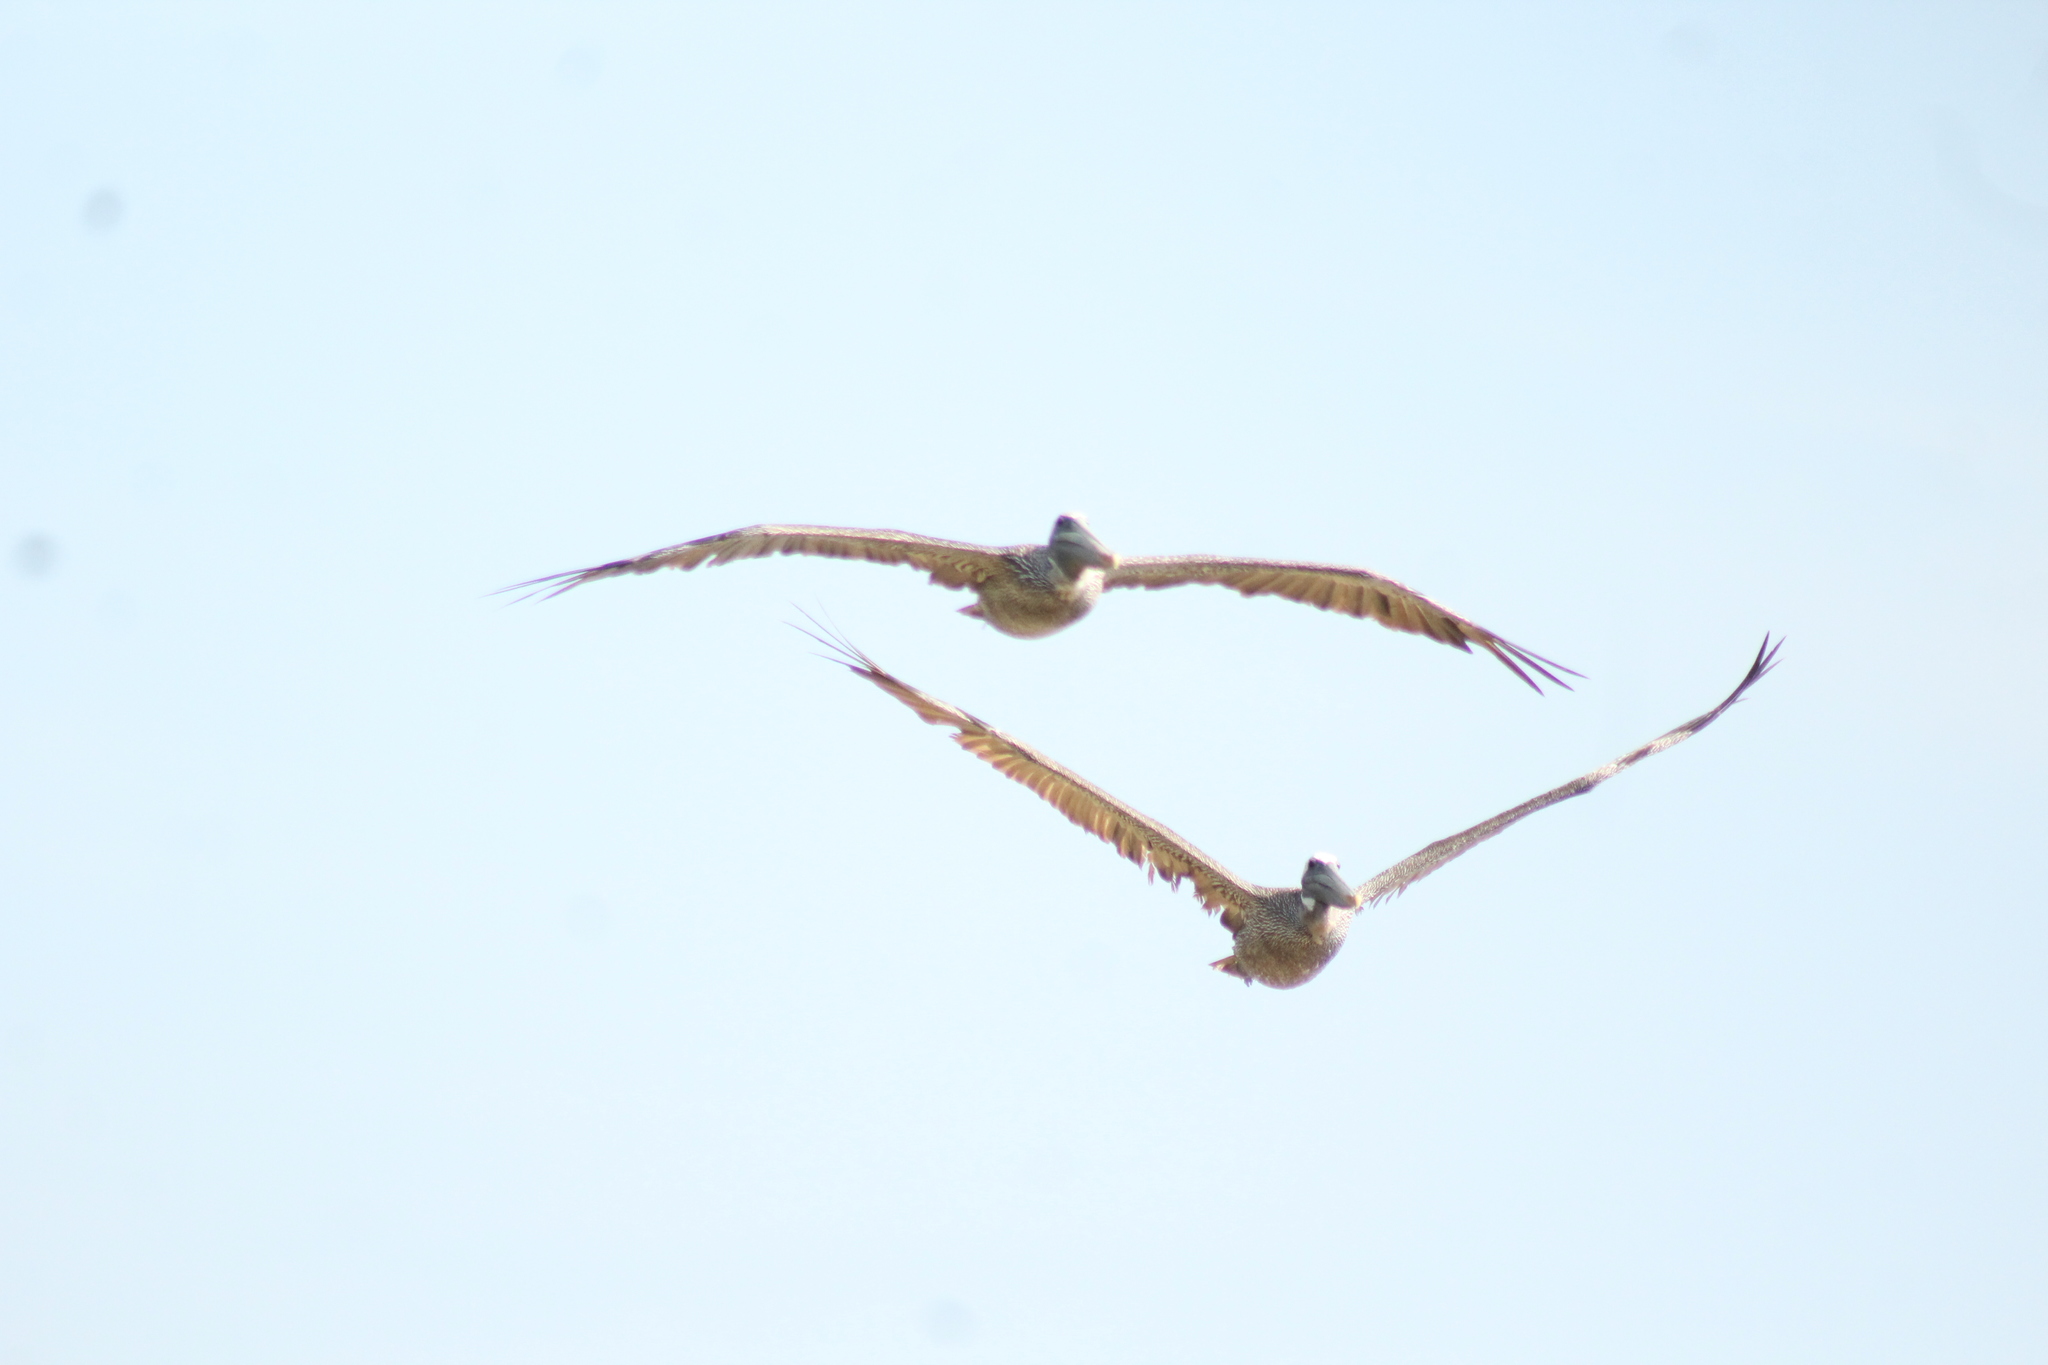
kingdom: Animalia
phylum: Chordata
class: Aves
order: Pelecaniformes
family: Pelecanidae
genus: Pelecanus
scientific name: Pelecanus occidentalis
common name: Brown pelican
